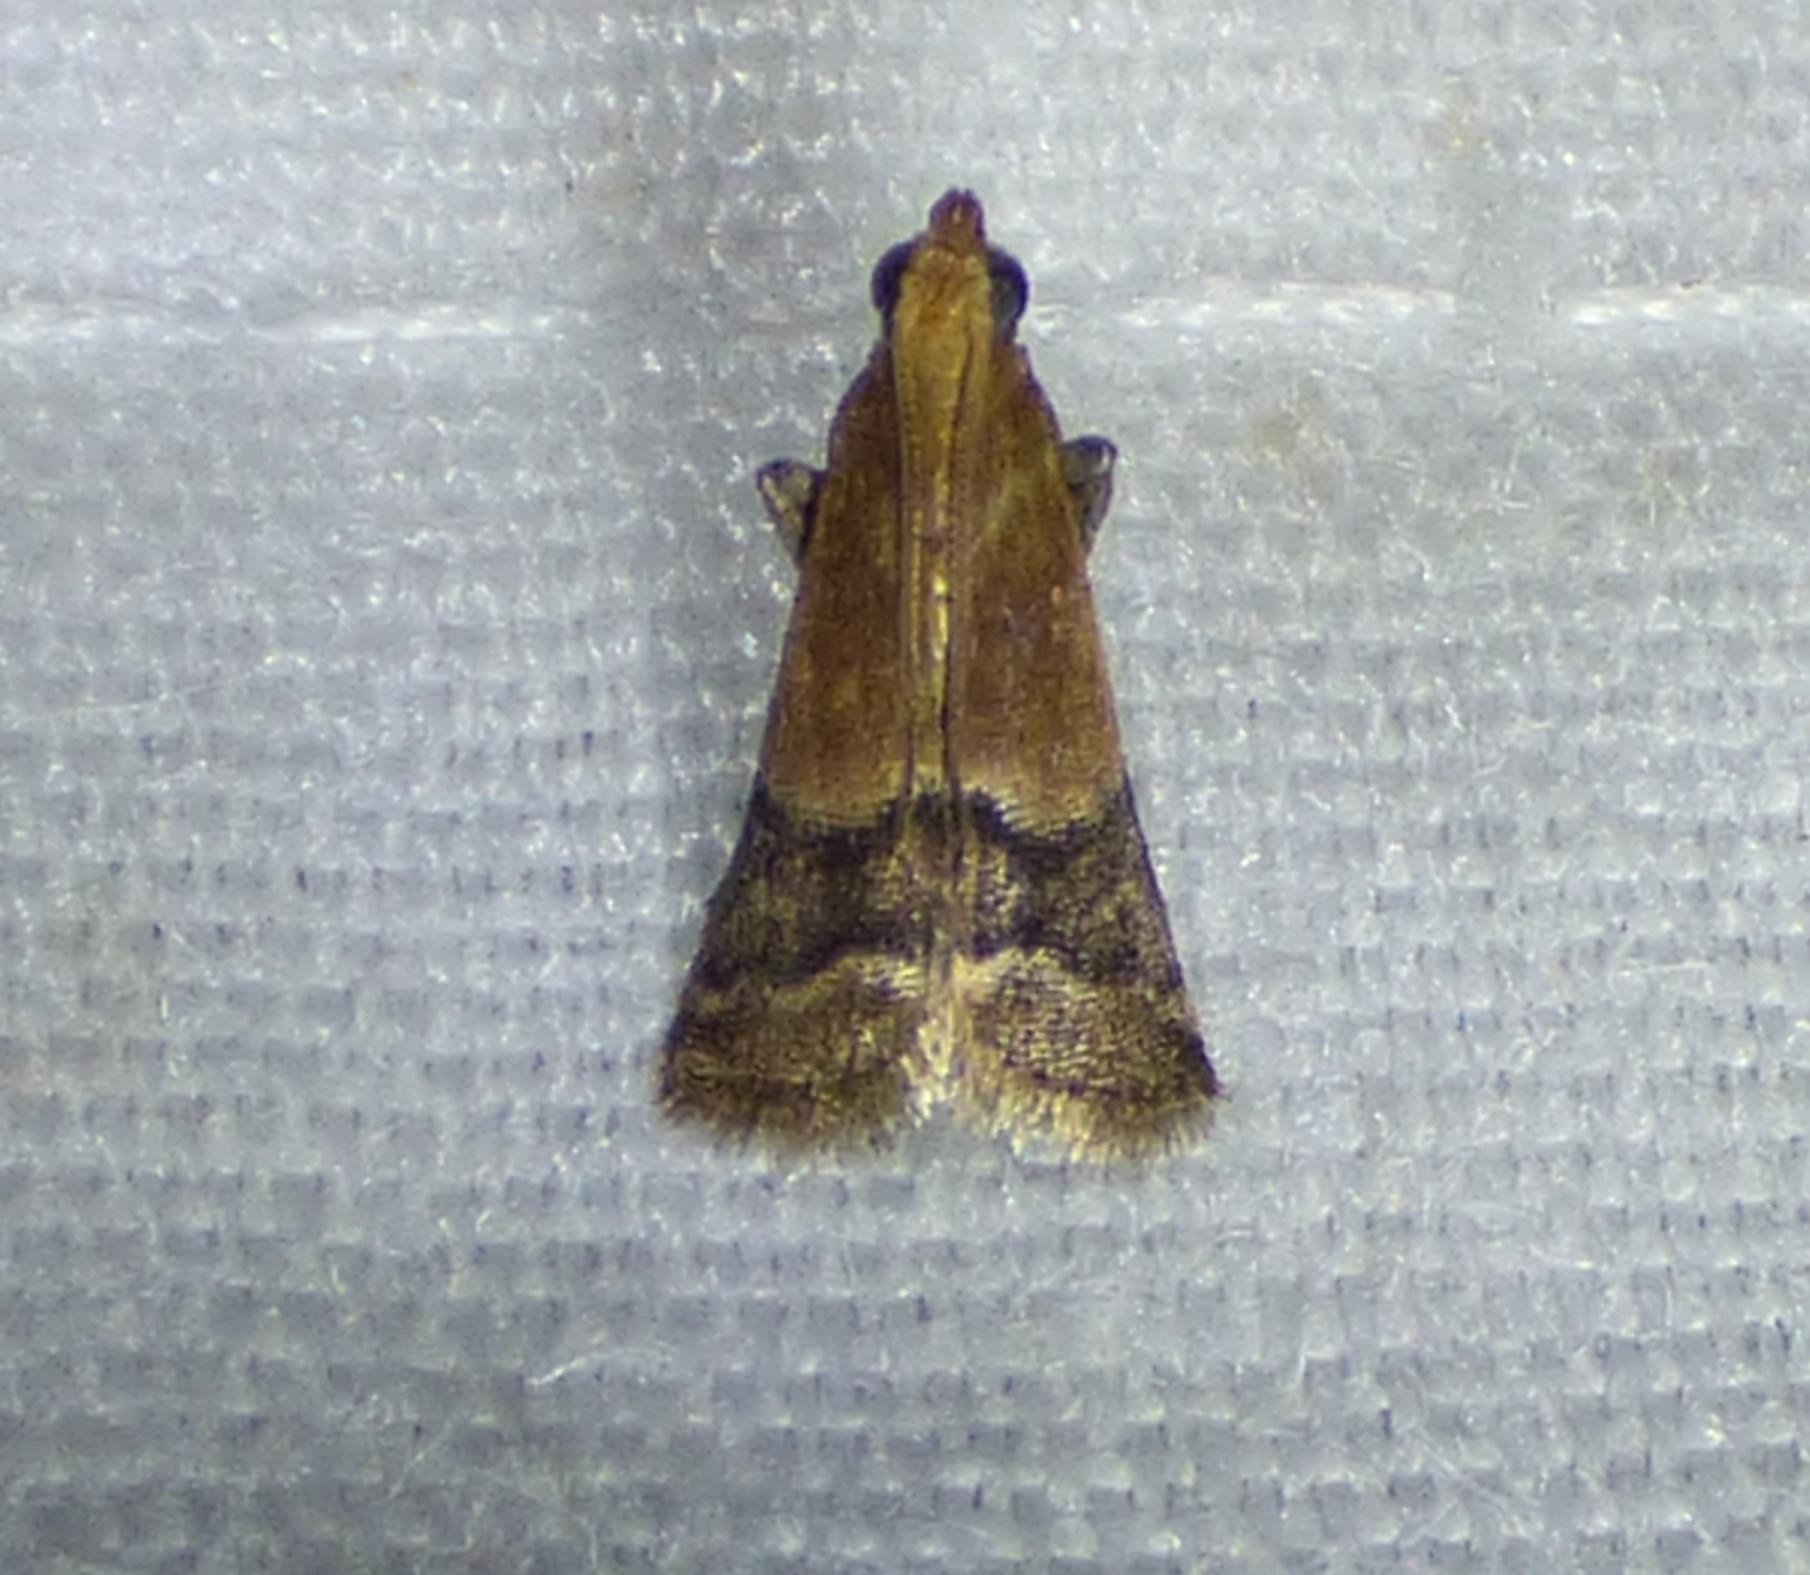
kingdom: Animalia
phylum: Arthropoda
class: Insecta
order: Lepidoptera
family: Pyralidae
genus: Eulogia
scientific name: Eulogia ochrifrontella
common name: Broad-banded eulogia moth
